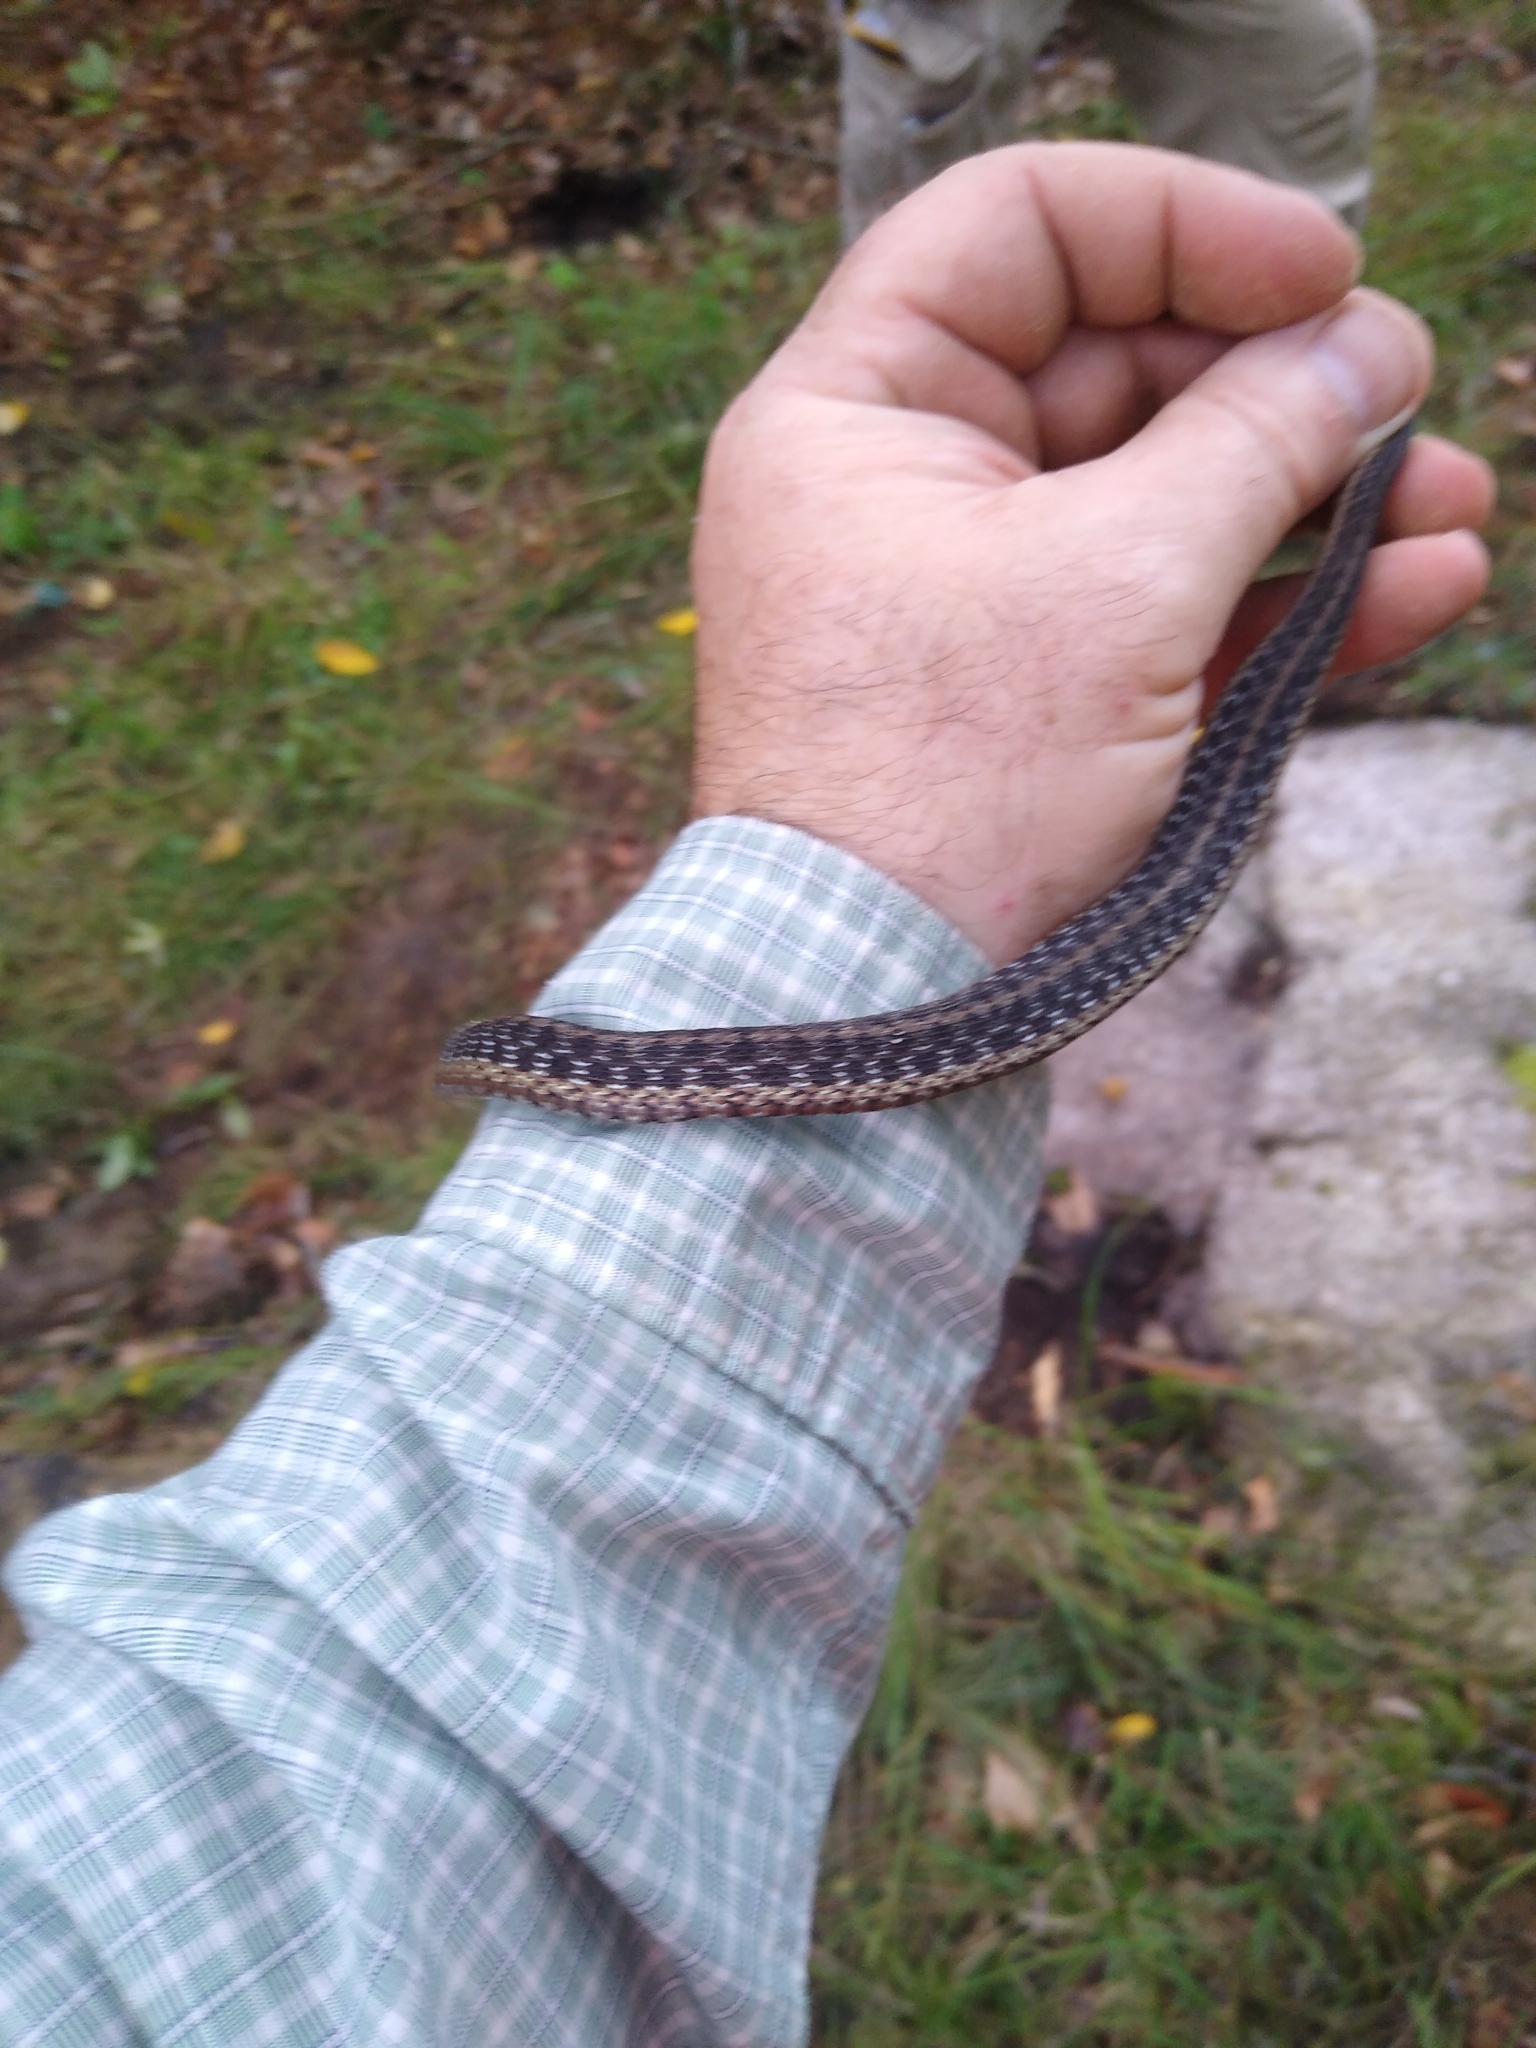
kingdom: Animalia
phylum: Chordata
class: Squamata
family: Colubridae
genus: Thamnophis
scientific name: Thamnophis sirtalis
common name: Common garter snake
